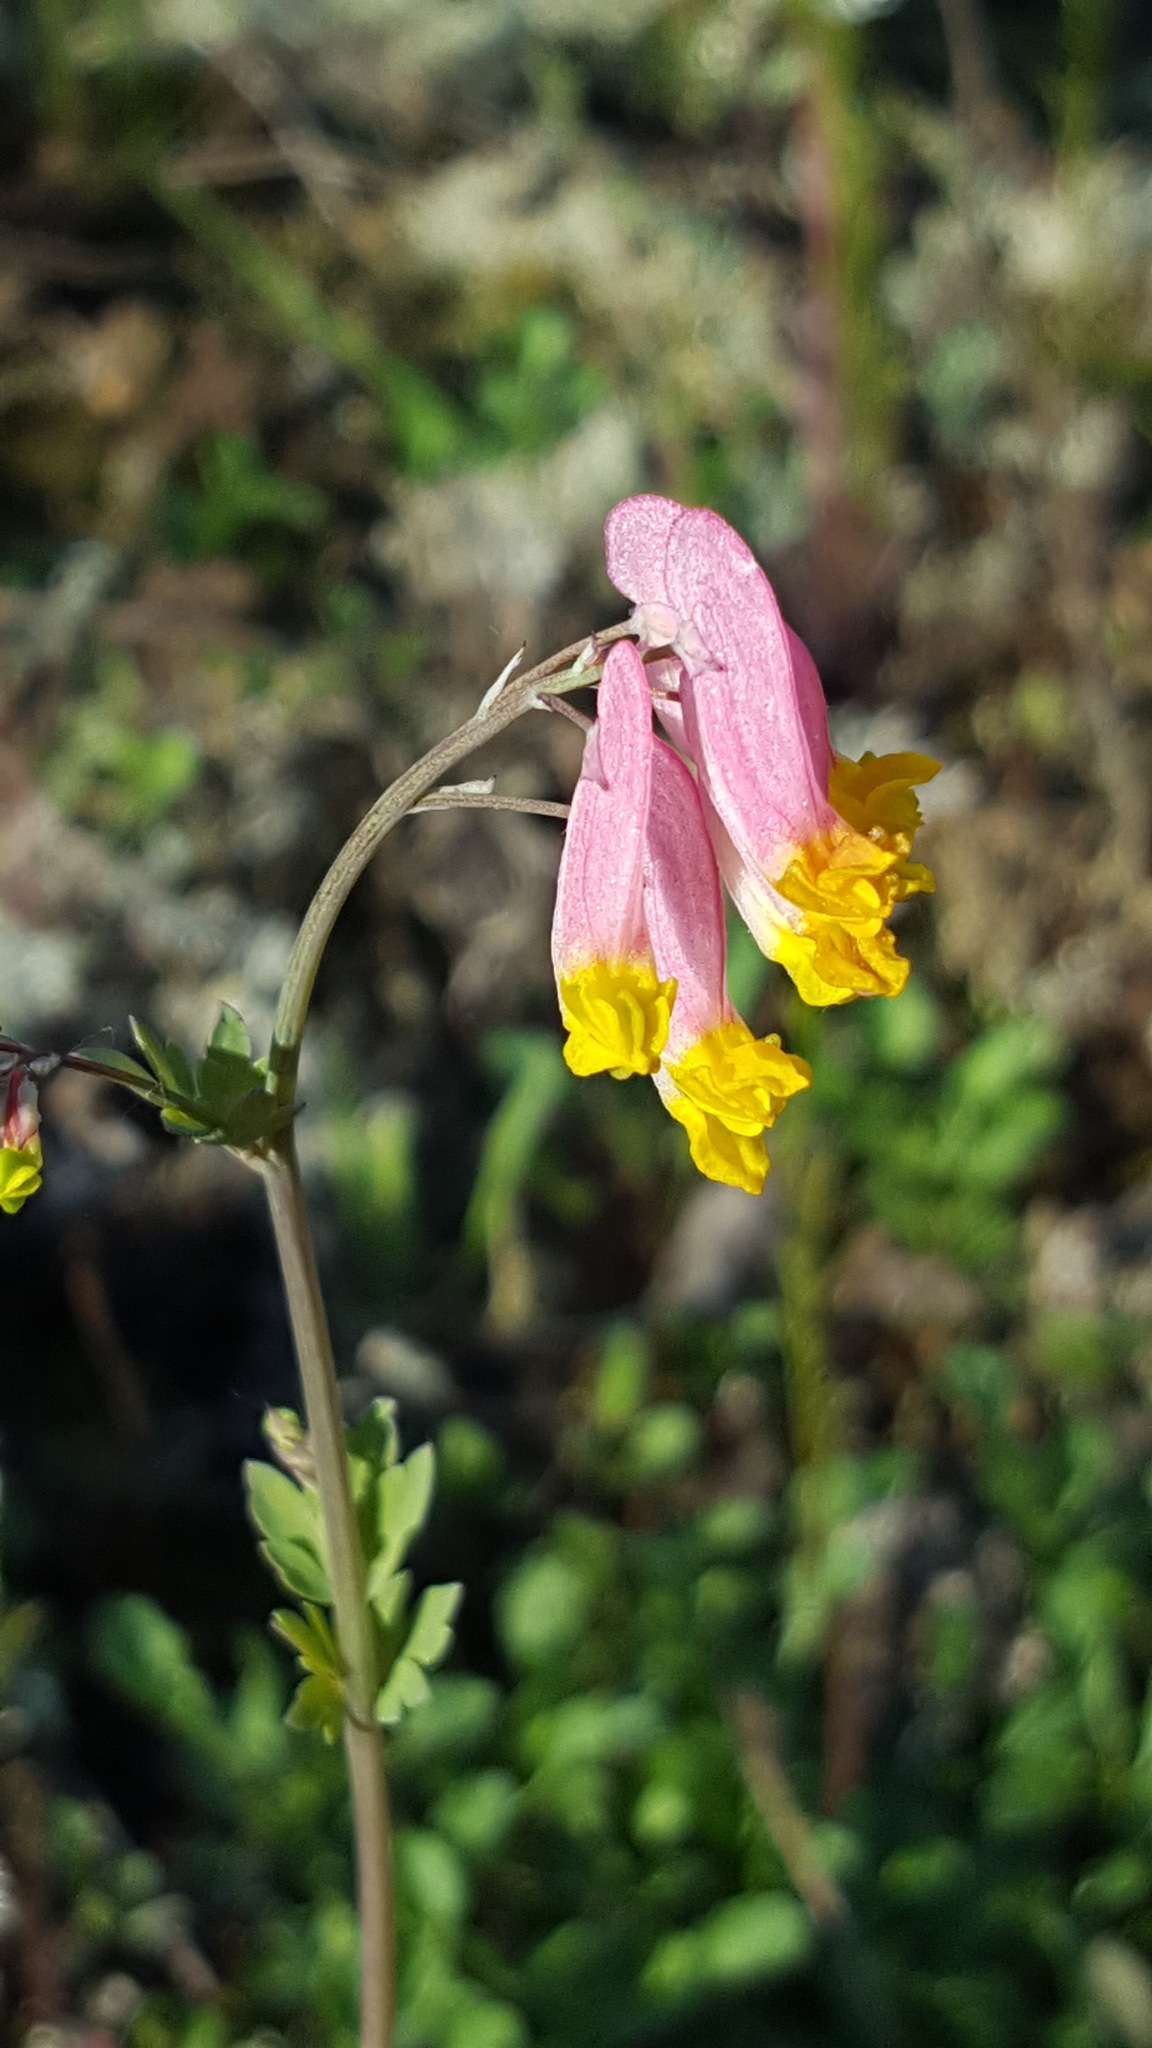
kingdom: Plantae
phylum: Tracheophyta
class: Magnoliopsida
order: Ranunculales
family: Papaveraceae
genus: Capnoides
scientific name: Capnoides sempervirens
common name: Rock harlequin
